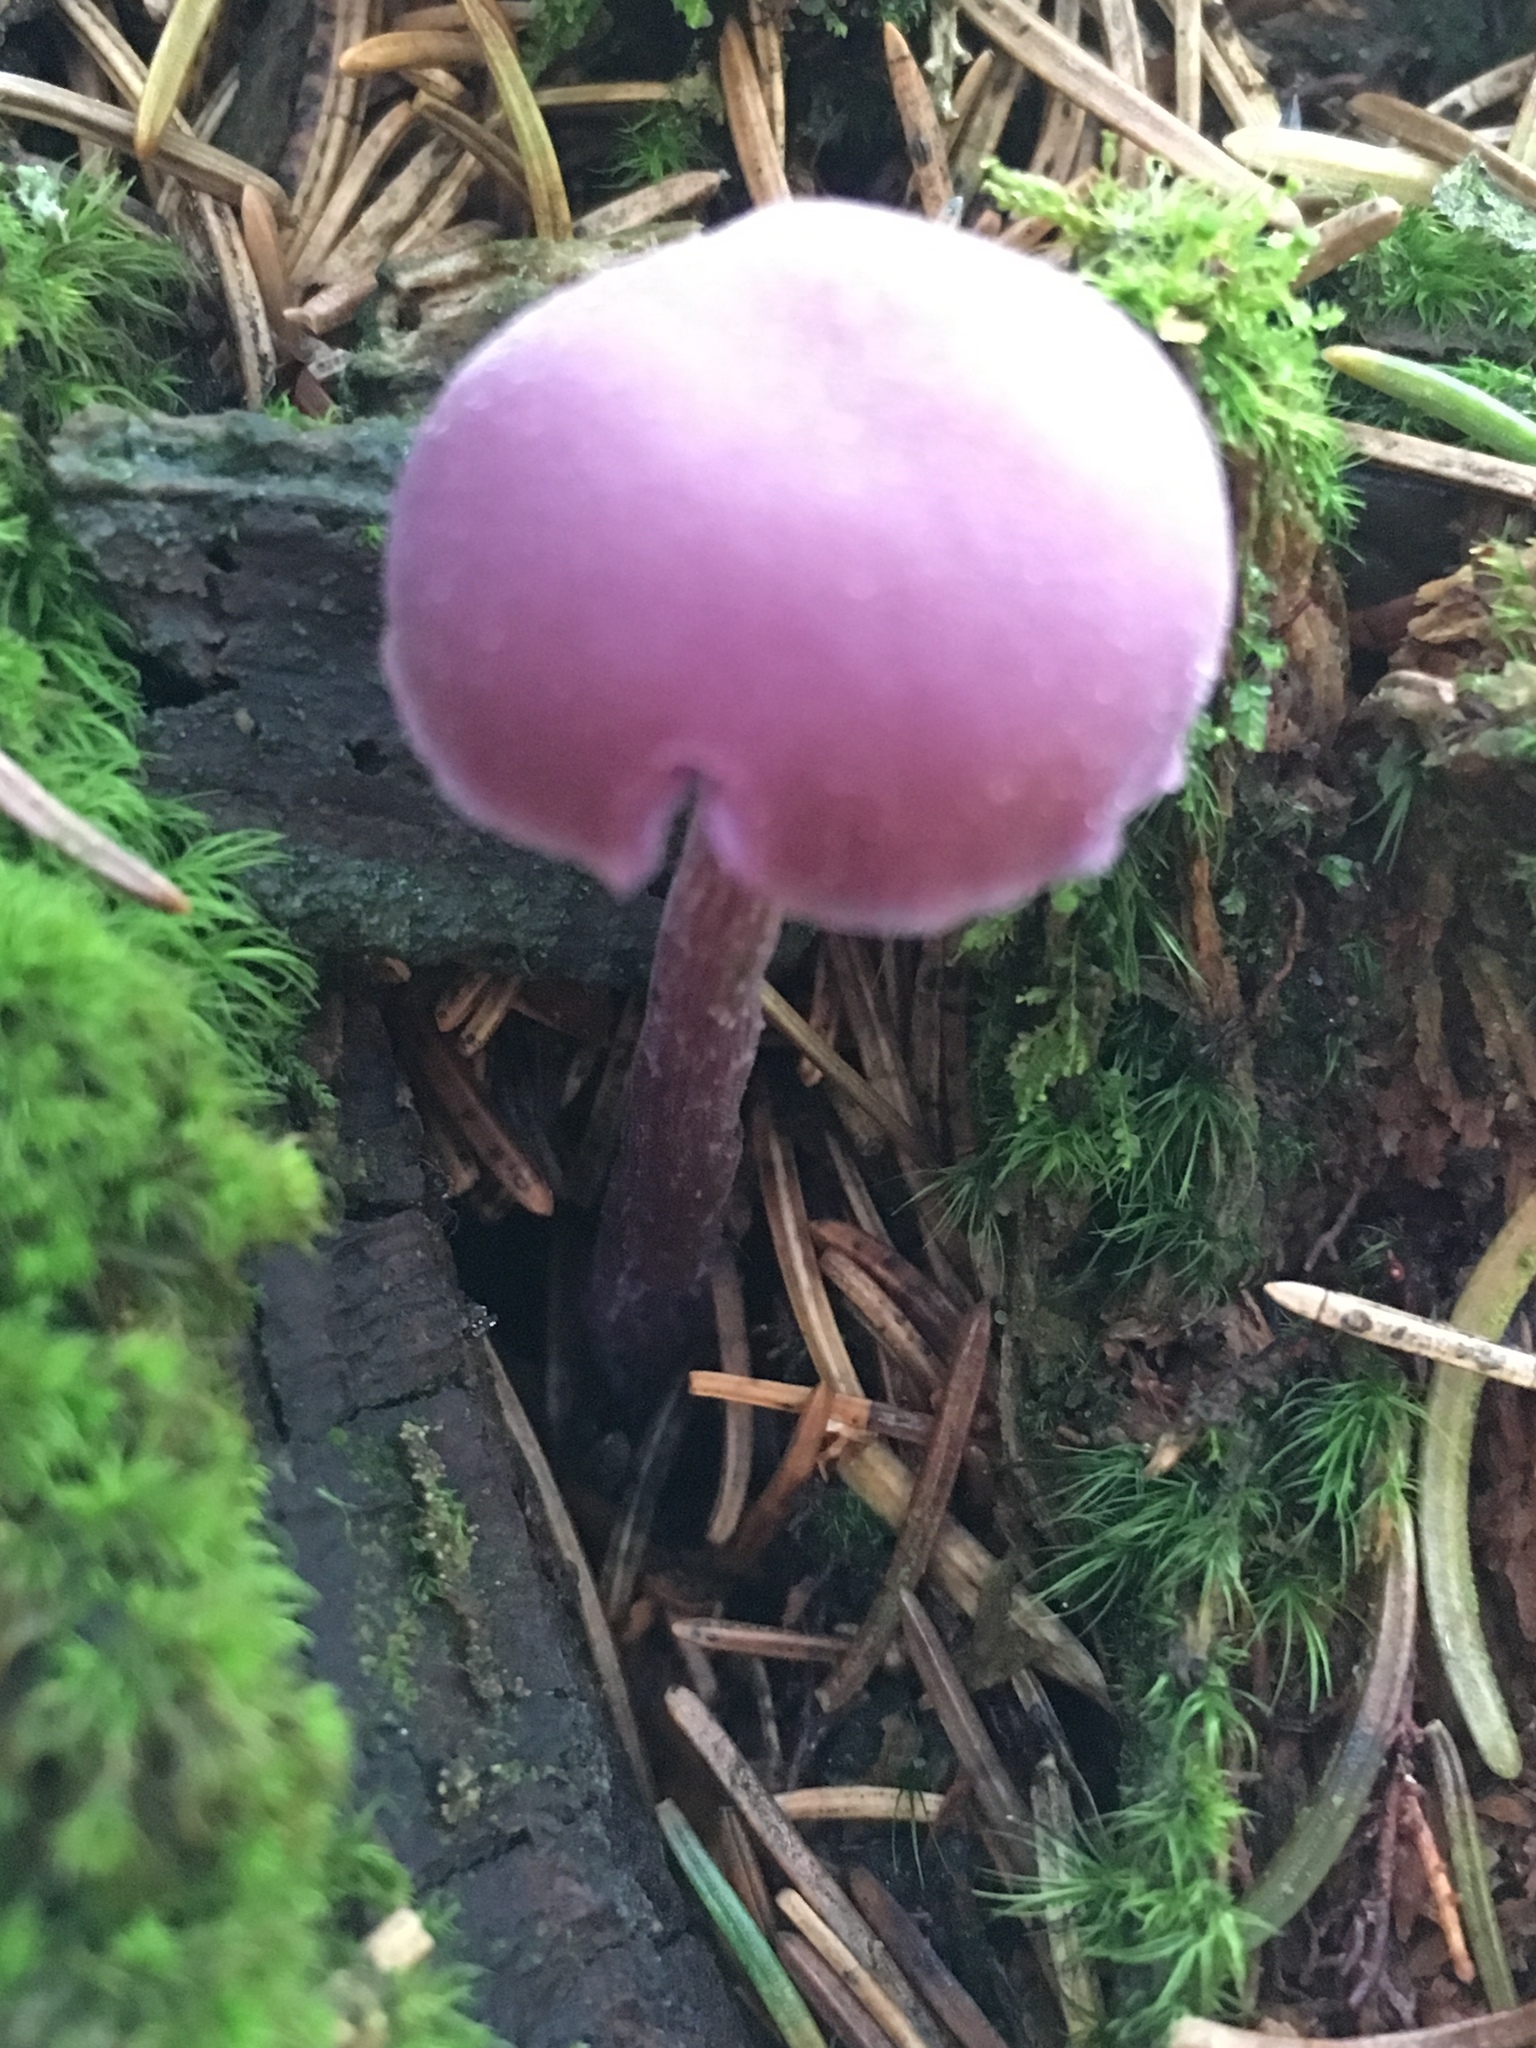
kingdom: Fungi
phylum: Basidiomycota
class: Agaricomycetes
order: Agaricales
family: Hydnangiaceae
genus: Laccaria
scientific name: Laccaria amethystina
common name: Amethyst deceiver
